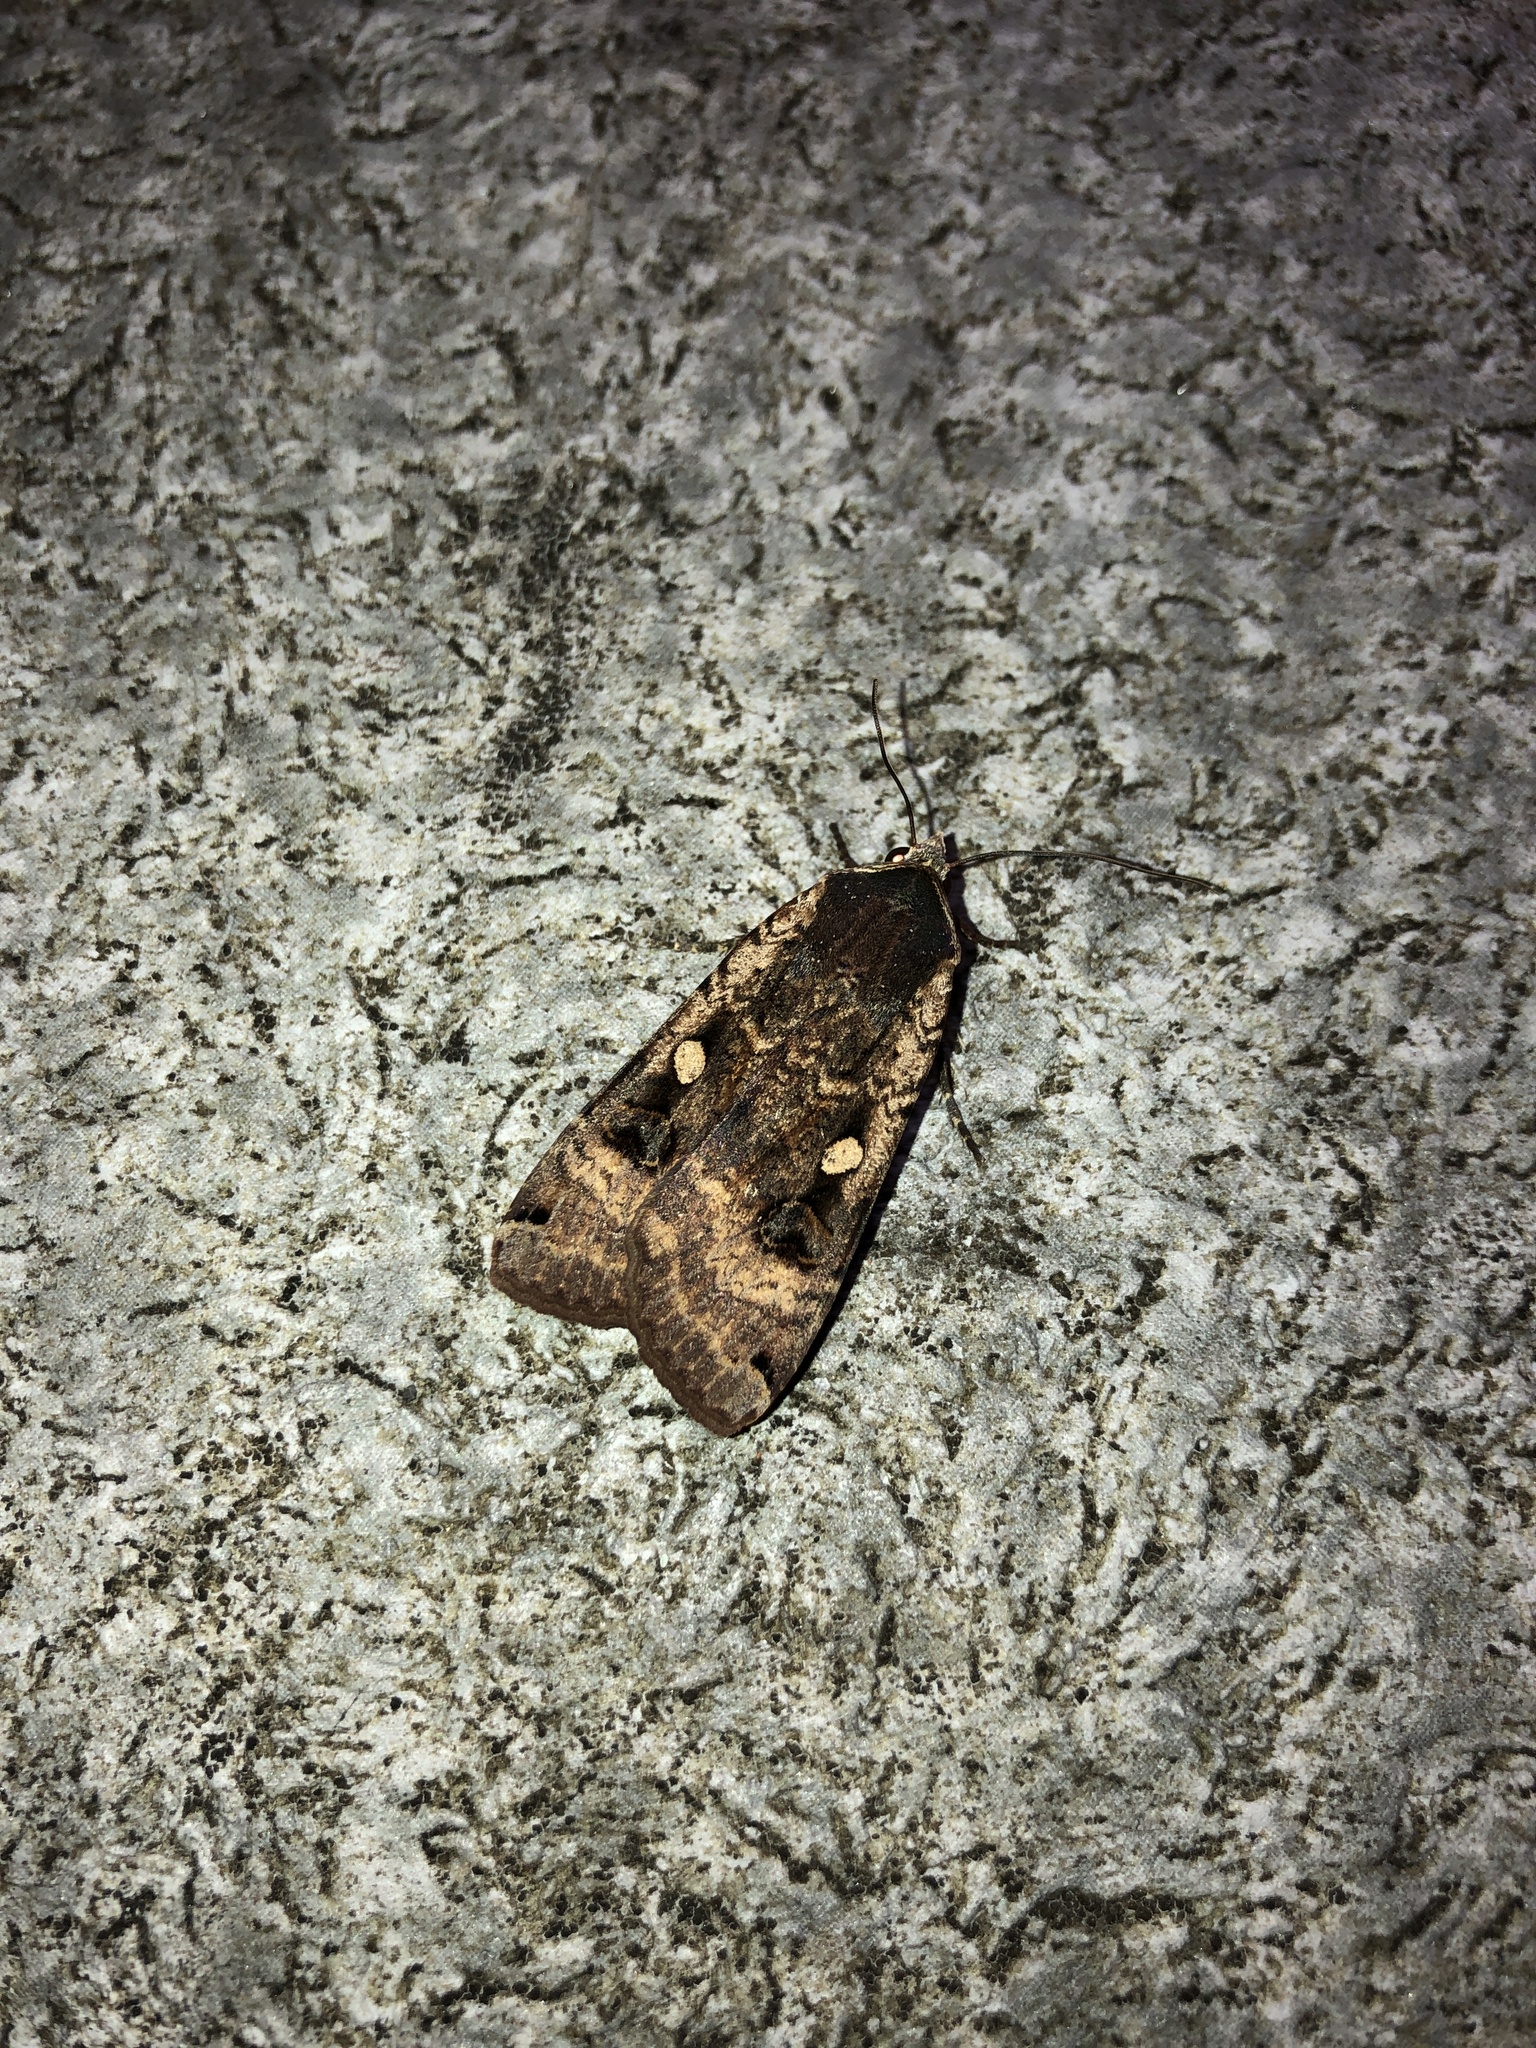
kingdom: Animalia
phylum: Arthropoda
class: Insecta
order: Lepidoptera
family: Noctuidae
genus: Noctua
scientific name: Noctua pronuba
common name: Large yellow underwing
